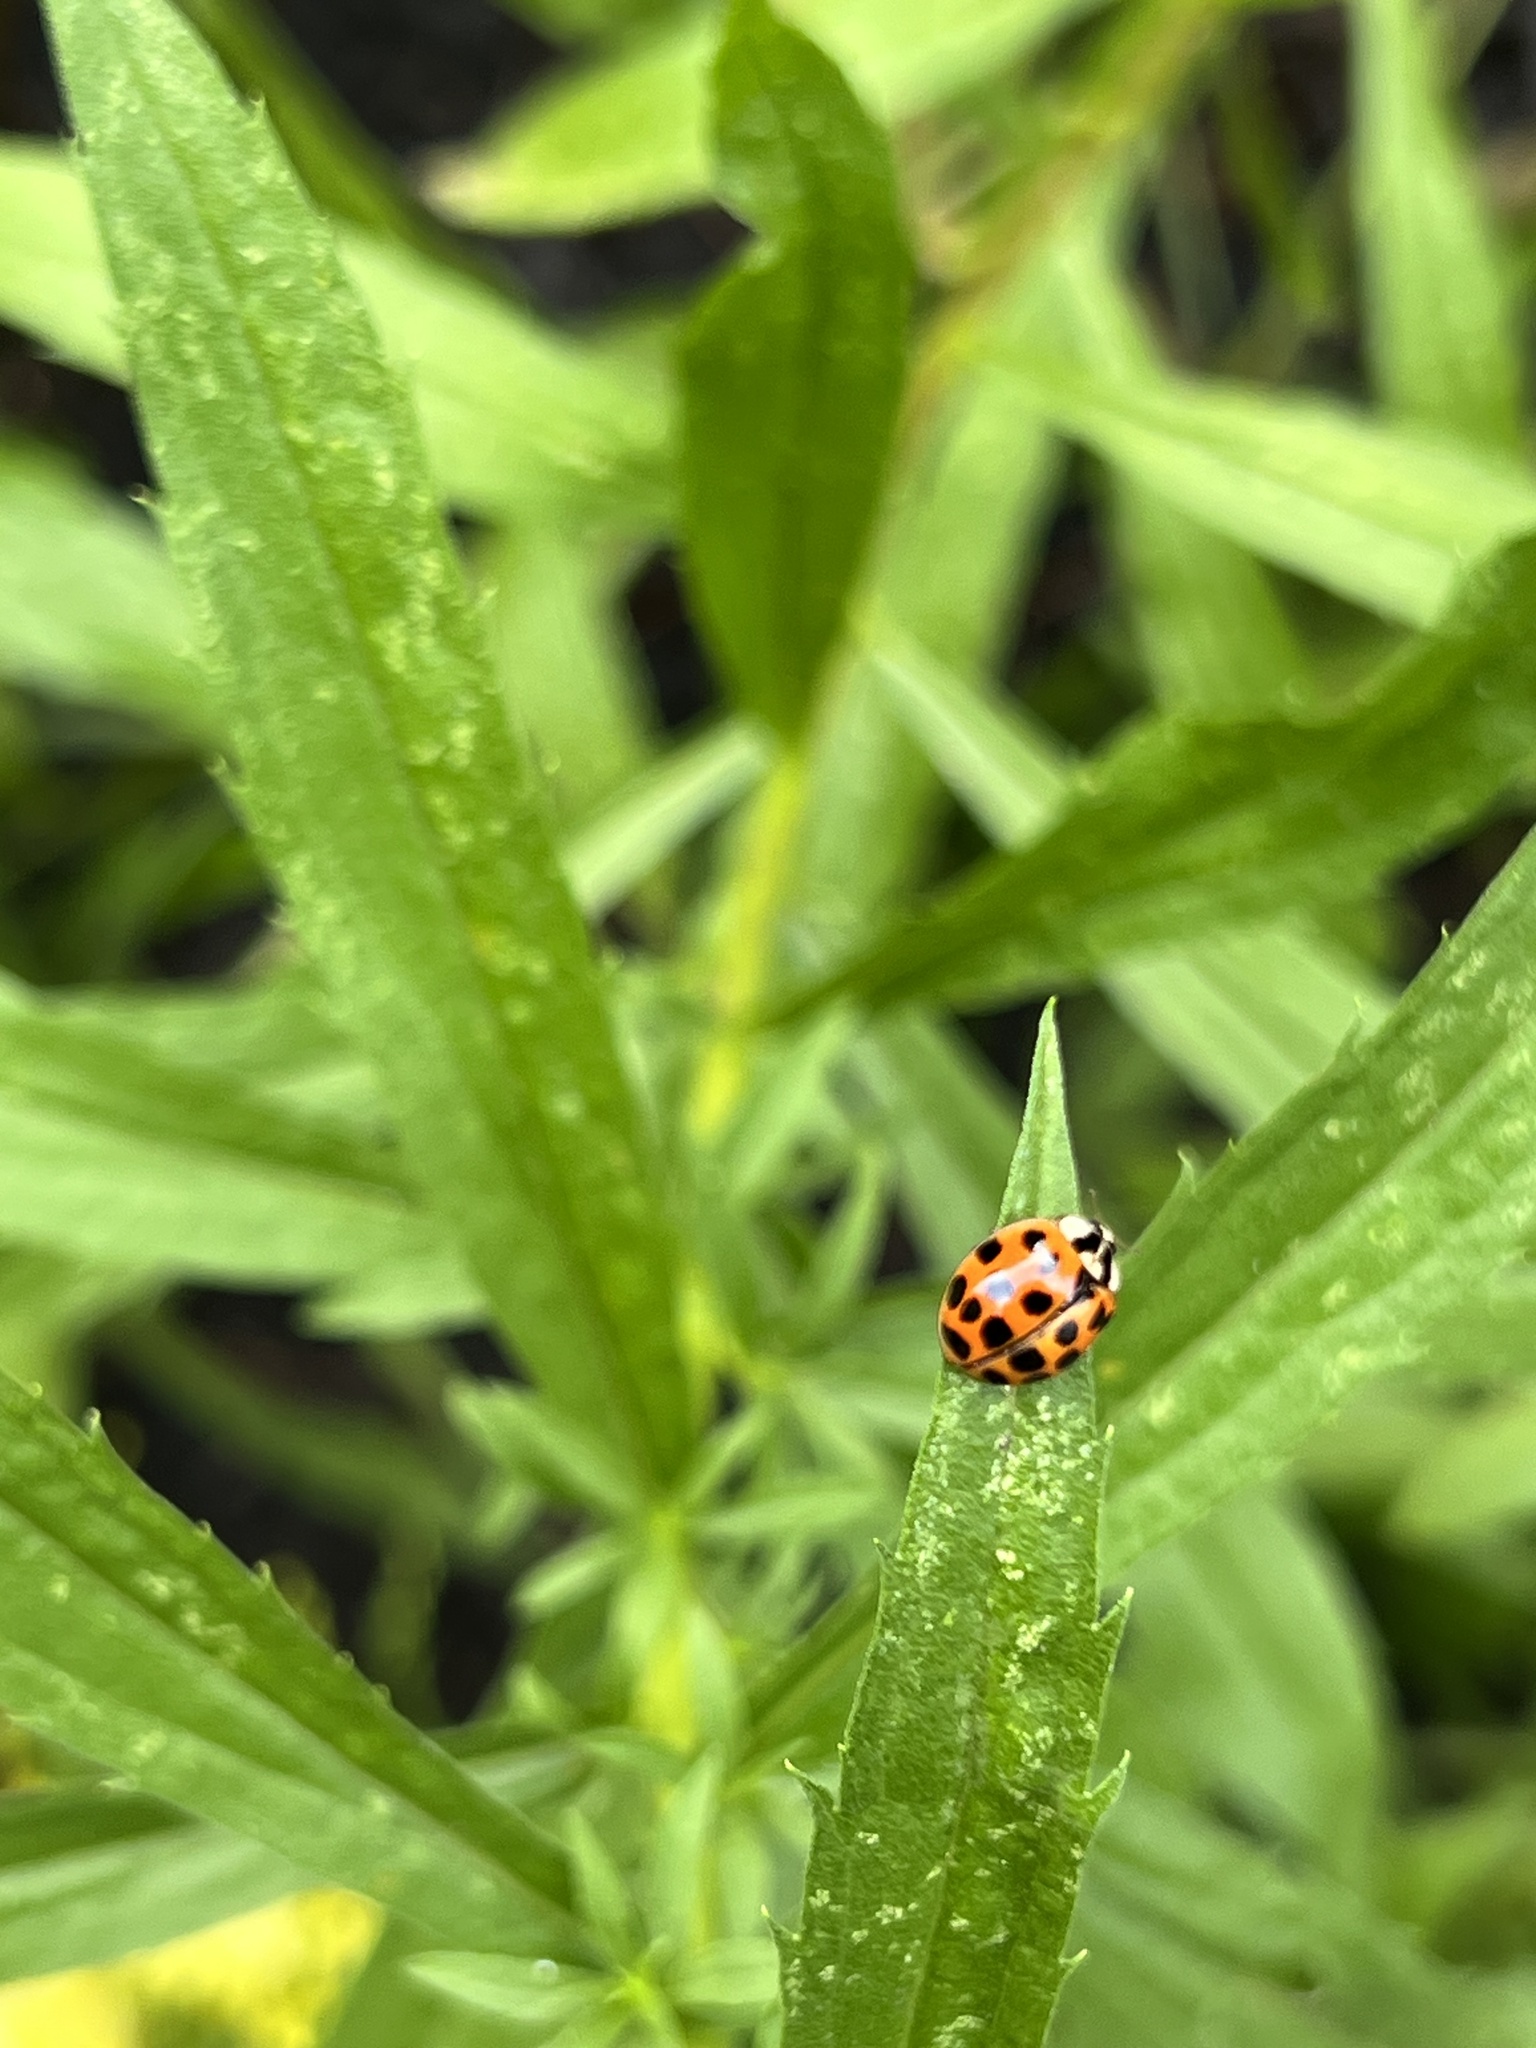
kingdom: Animalia
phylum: Arthropoda
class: Insecta
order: Coleoptera
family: Coccinellidae
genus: Harmonia
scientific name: Harmonia axyridis
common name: Harlequin ladybird
